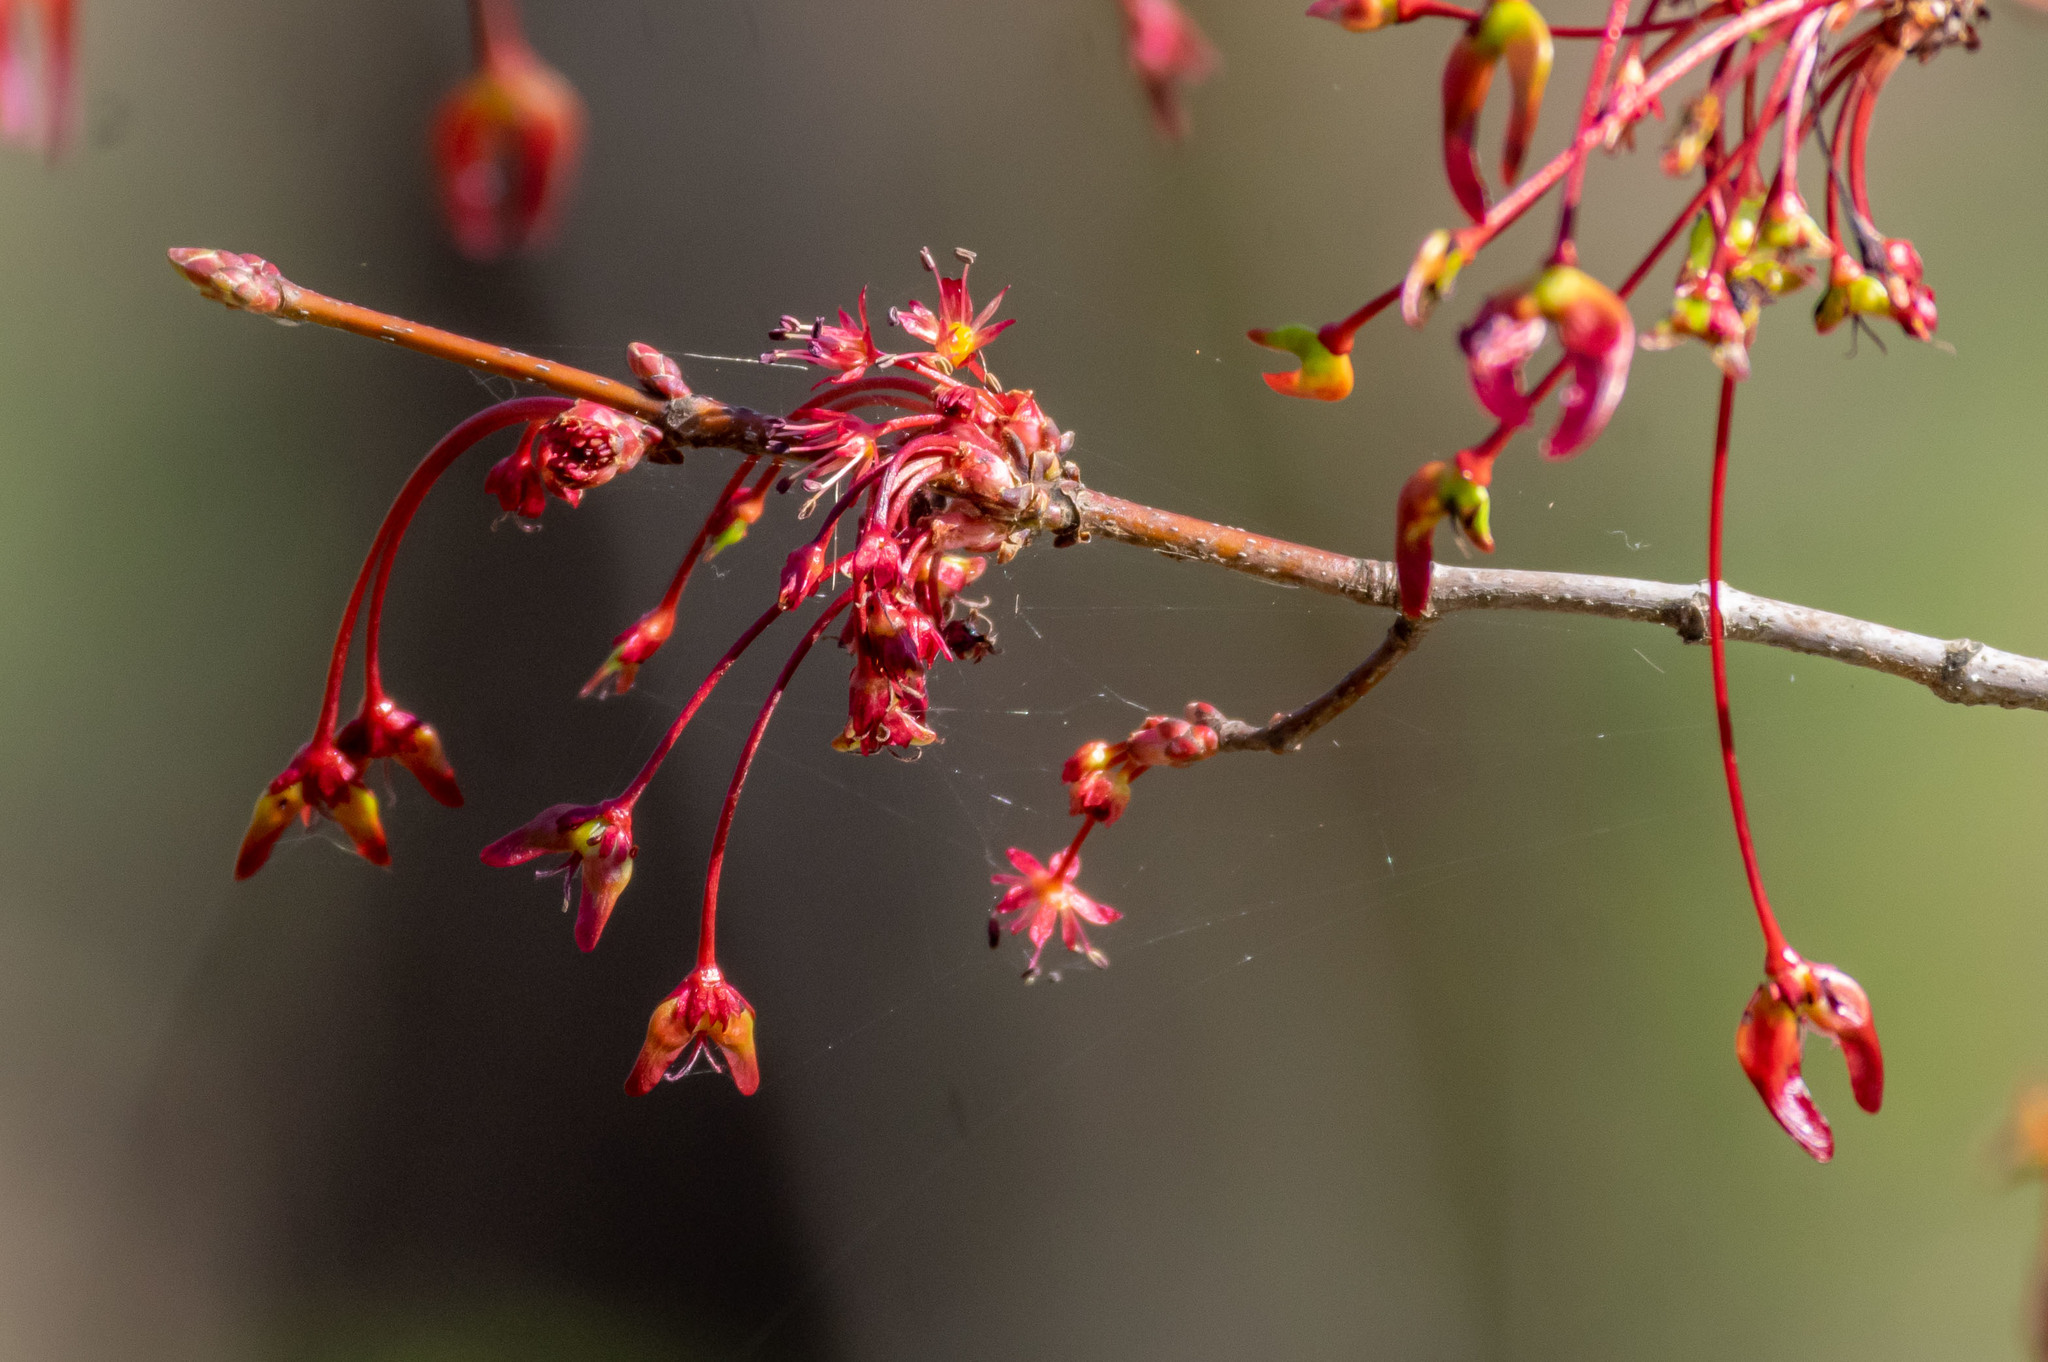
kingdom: Plantae
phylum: Tracheophyta
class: Magnoliopsida
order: Sapindales
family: Sapindaceae
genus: Acer
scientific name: Acer rubrum
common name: Red maple
